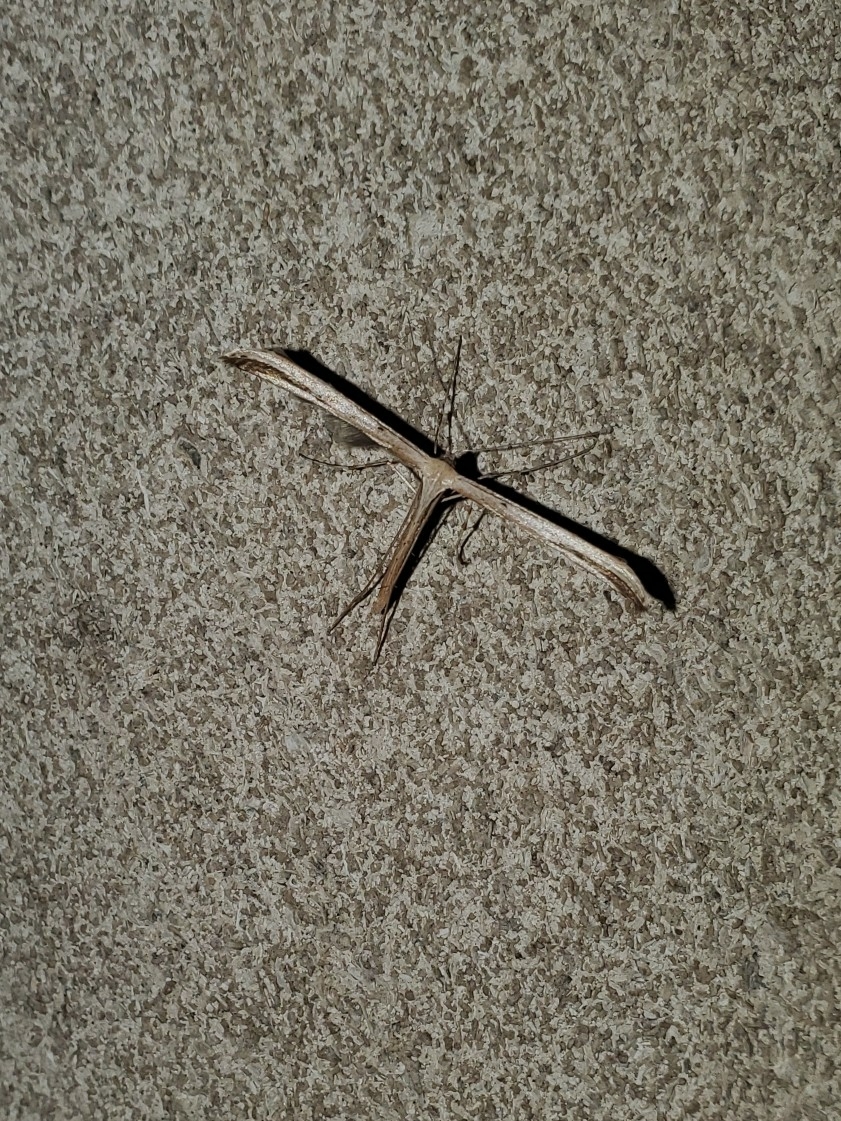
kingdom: Animalia
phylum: Arthropoda
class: Insecta
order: Lepidoptera
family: Pterophoridae
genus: Emmelina
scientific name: Emmelina monodactyla
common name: Common plume
